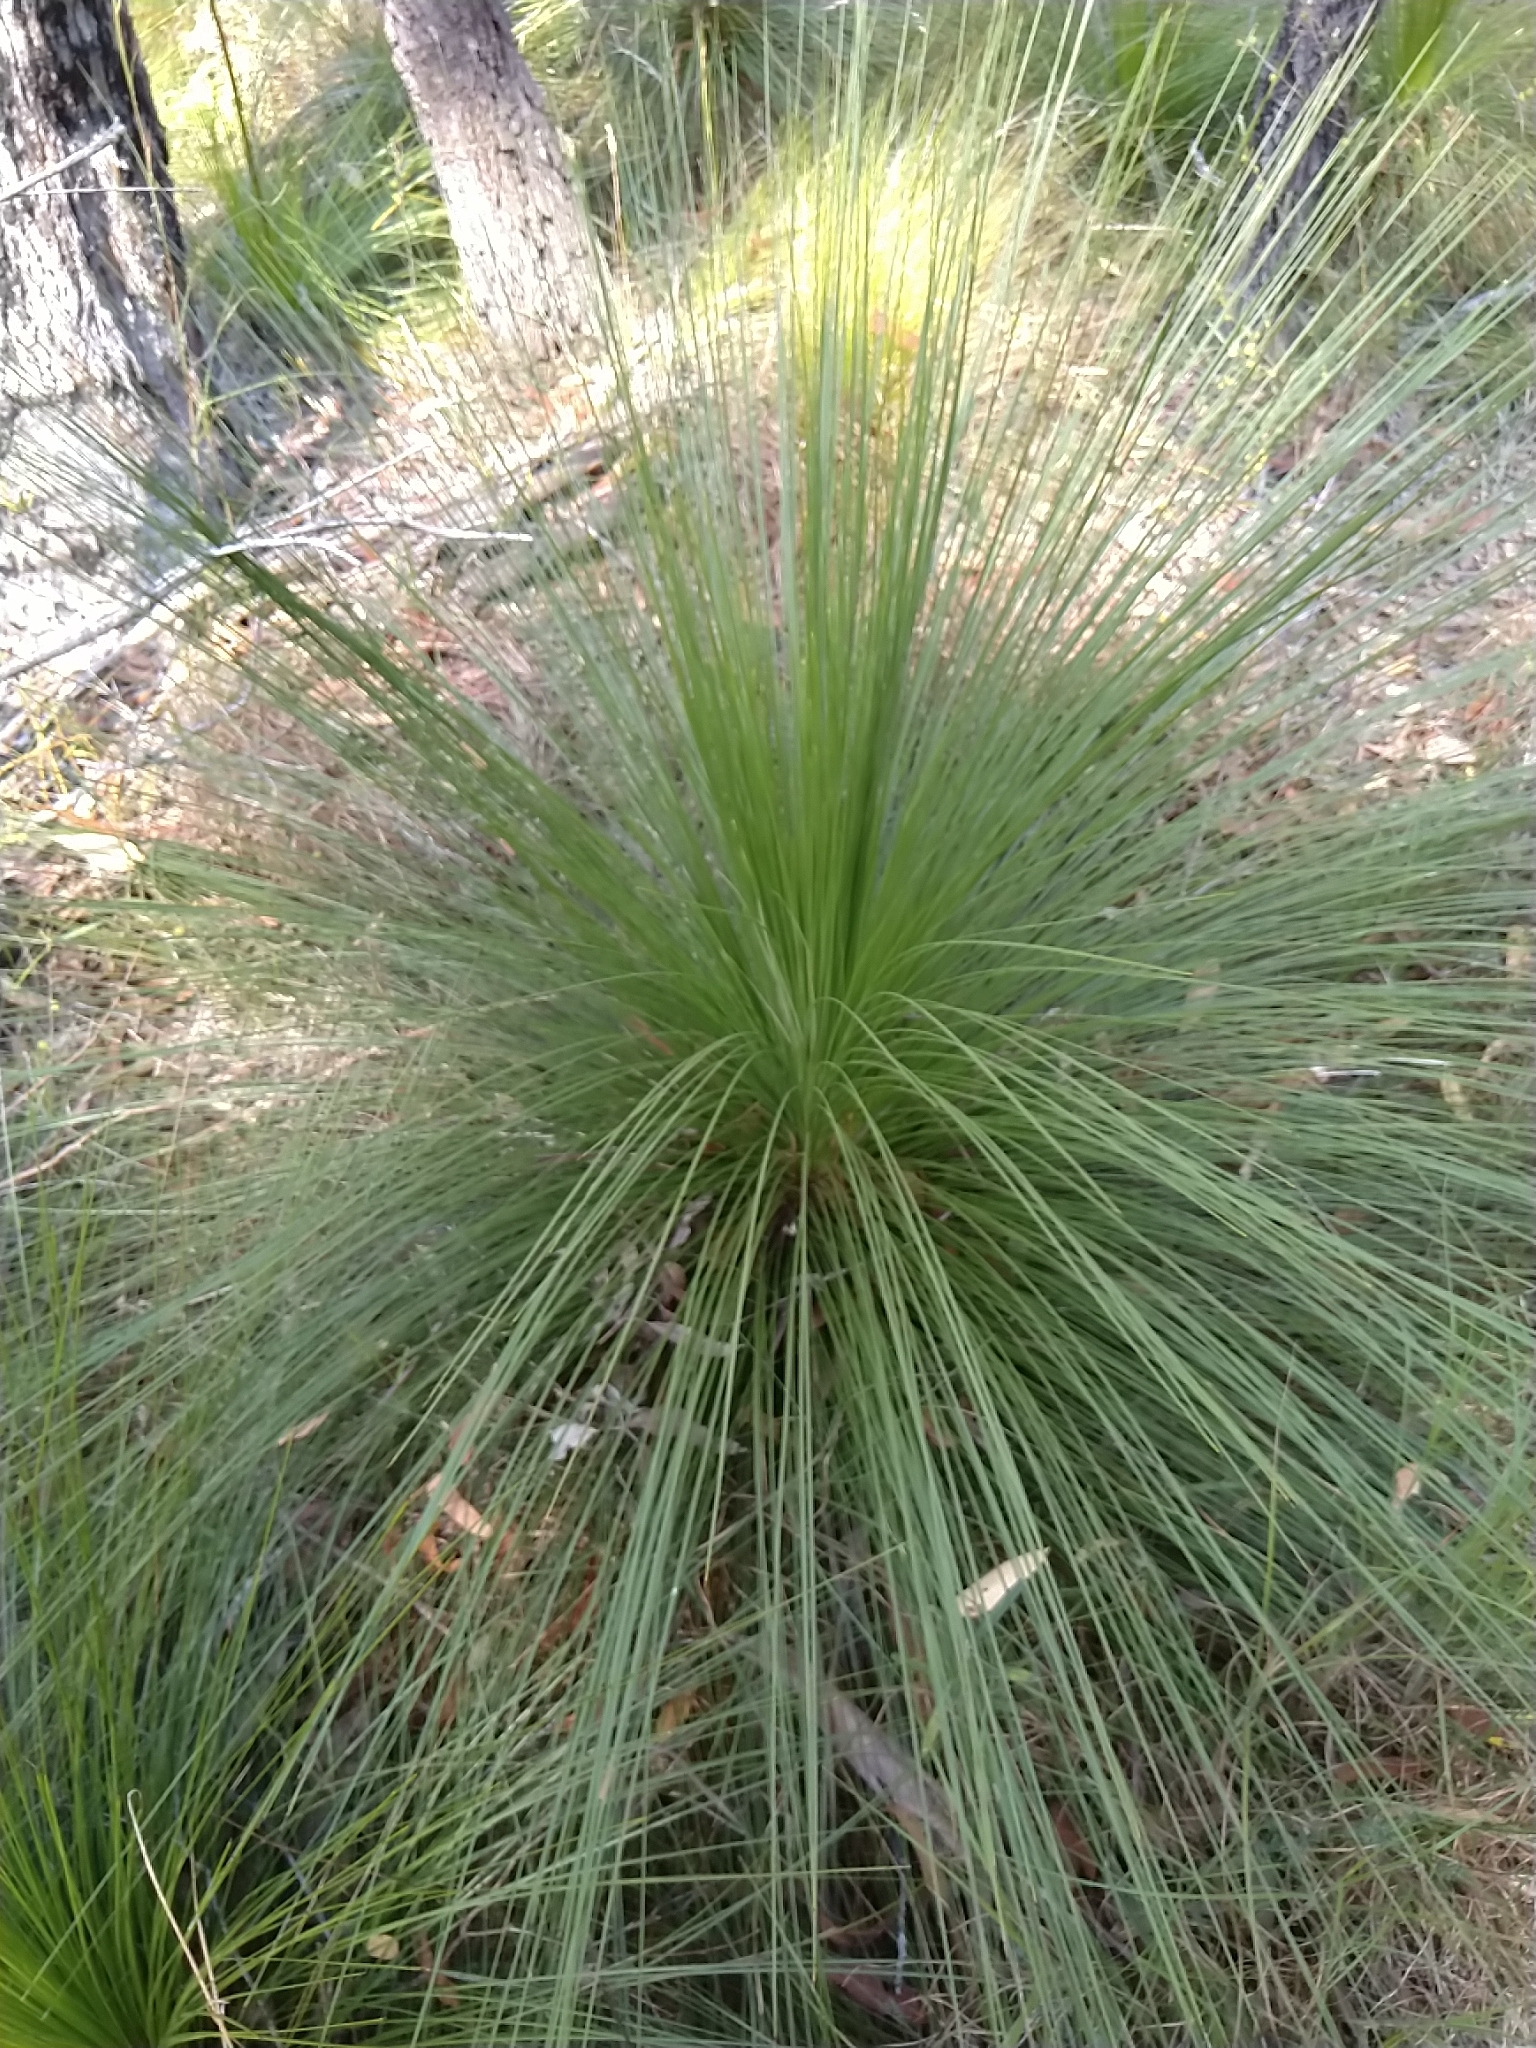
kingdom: Plantae
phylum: Tracheophyta
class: Liliopsida
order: Asparagales
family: Asphodelaceae
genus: Xanthorrhoea
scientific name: Xanthorrhoea johnsonii
